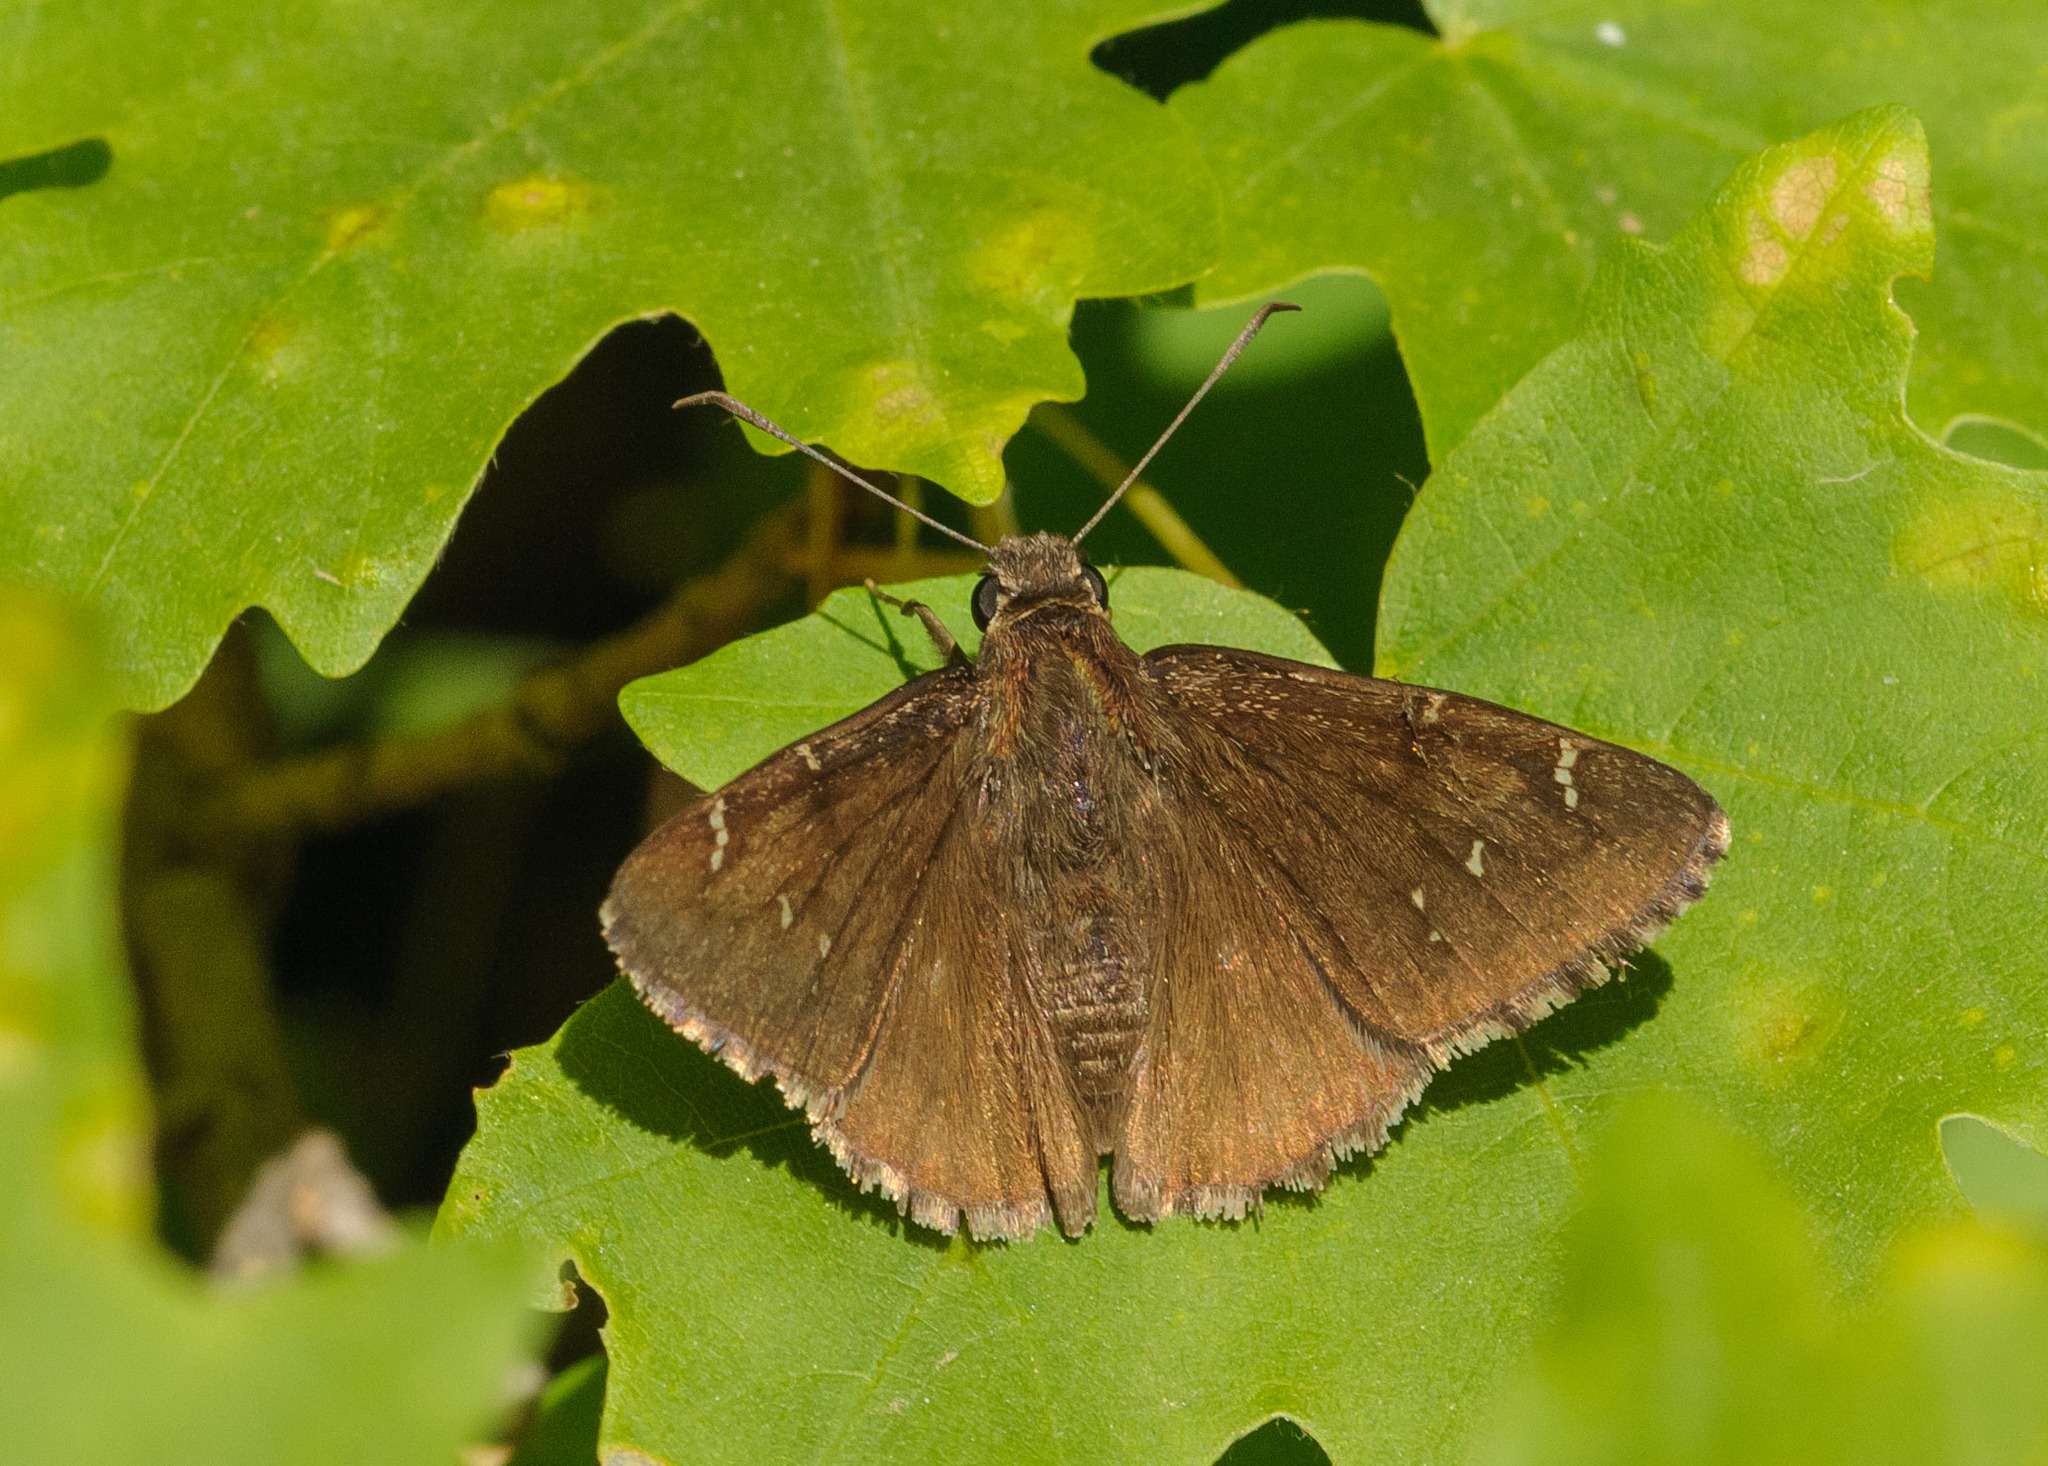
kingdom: Animalia
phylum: Arthropoda
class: Insecta
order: Lepidoptera
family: Hesperiidae
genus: Thorybes
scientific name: Thorybes pylades
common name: Northern cloudywing
